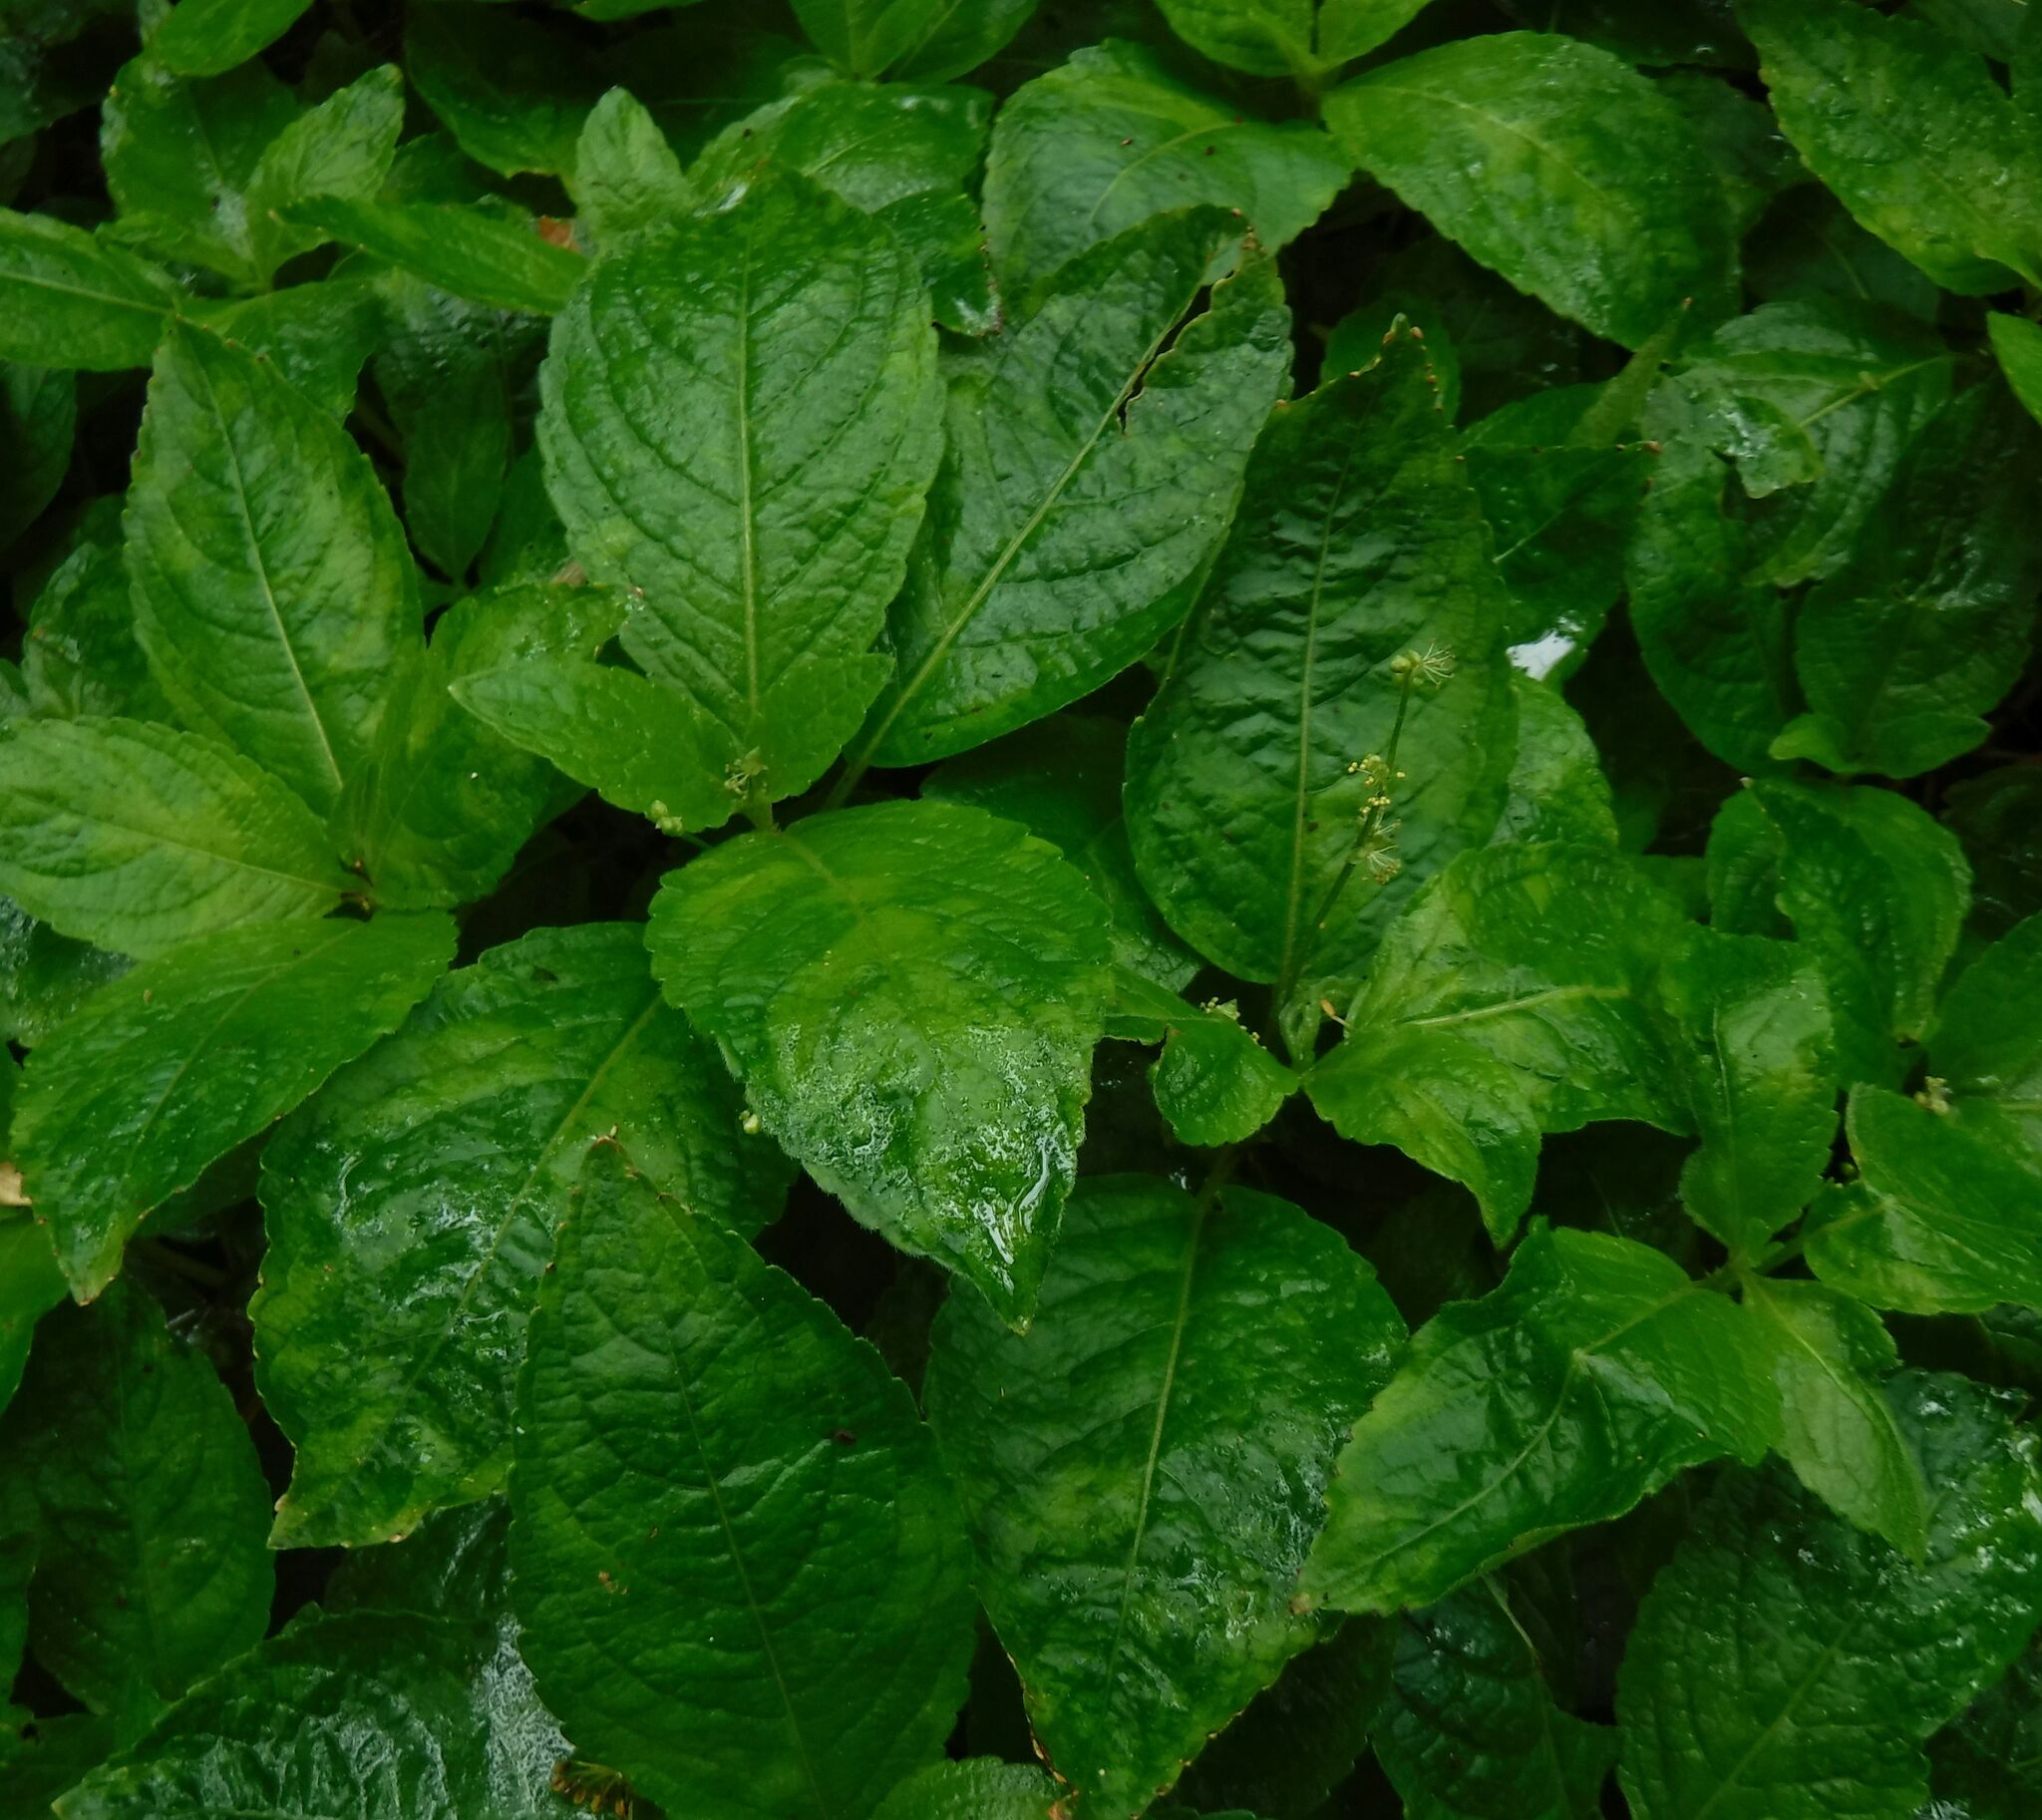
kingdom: Plantae
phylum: Tracheophyta
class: Magnoliopsida
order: Malpighiales
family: Euphorbiaceae
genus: Mercurialis
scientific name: Mercurialis perennis
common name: Dog mercury
